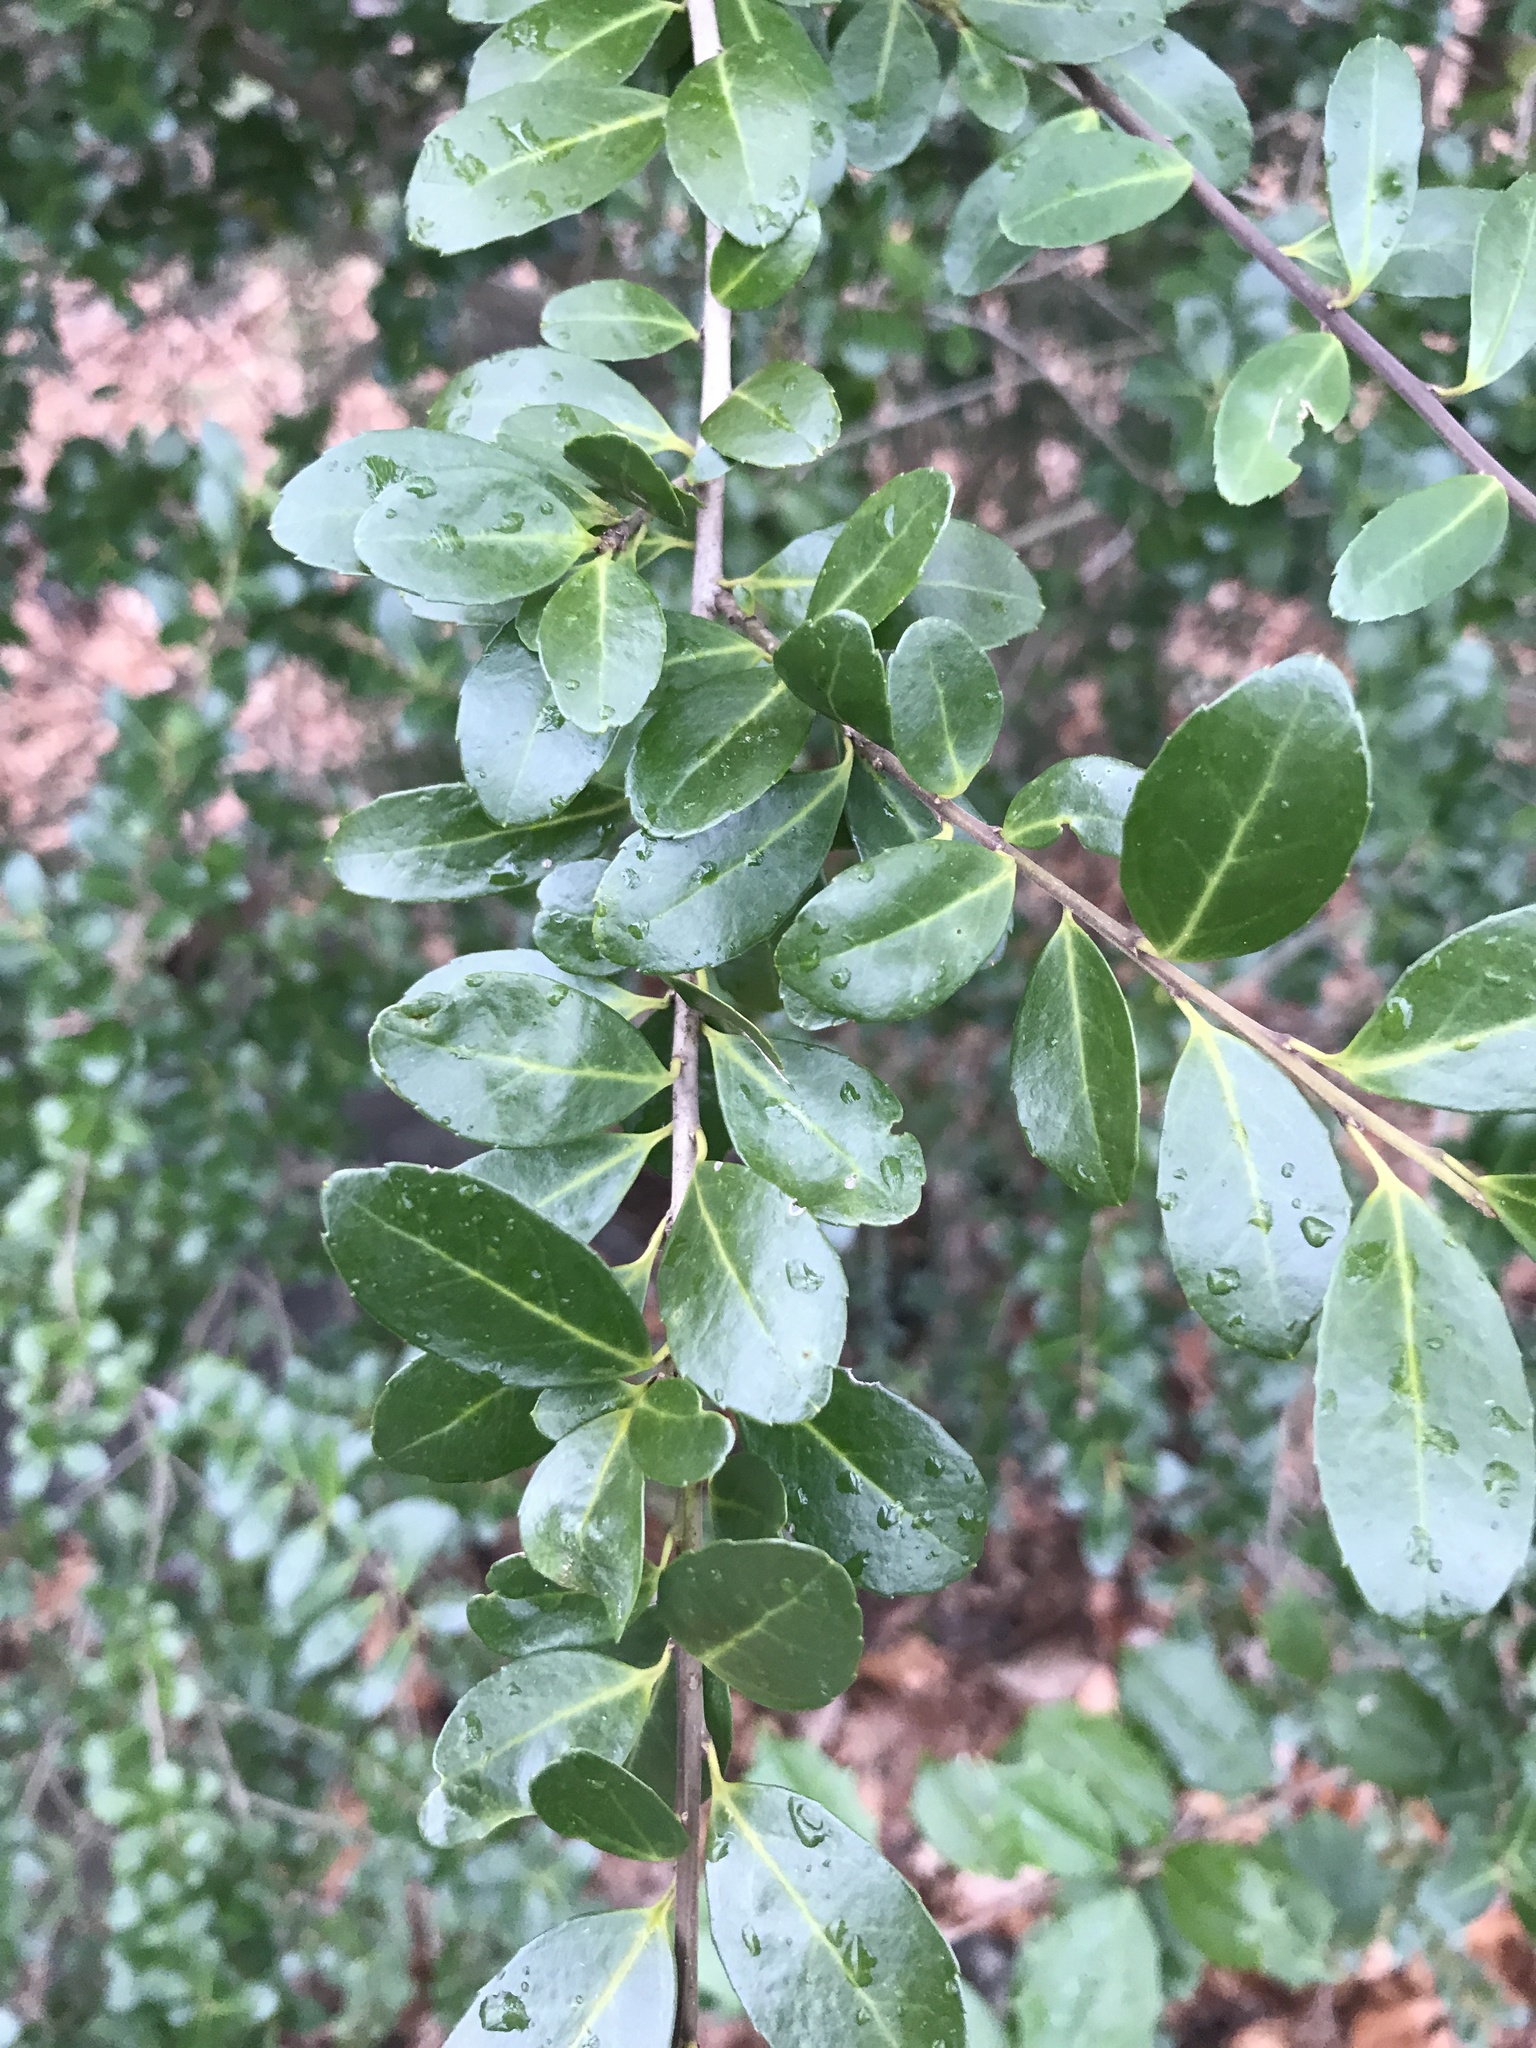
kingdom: Plantae
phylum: Tracheophyta
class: Magnoliopsida
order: Aquifoliales
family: Aquifoliaceae
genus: Ilex
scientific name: Ilex crenata
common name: Japanese holly
